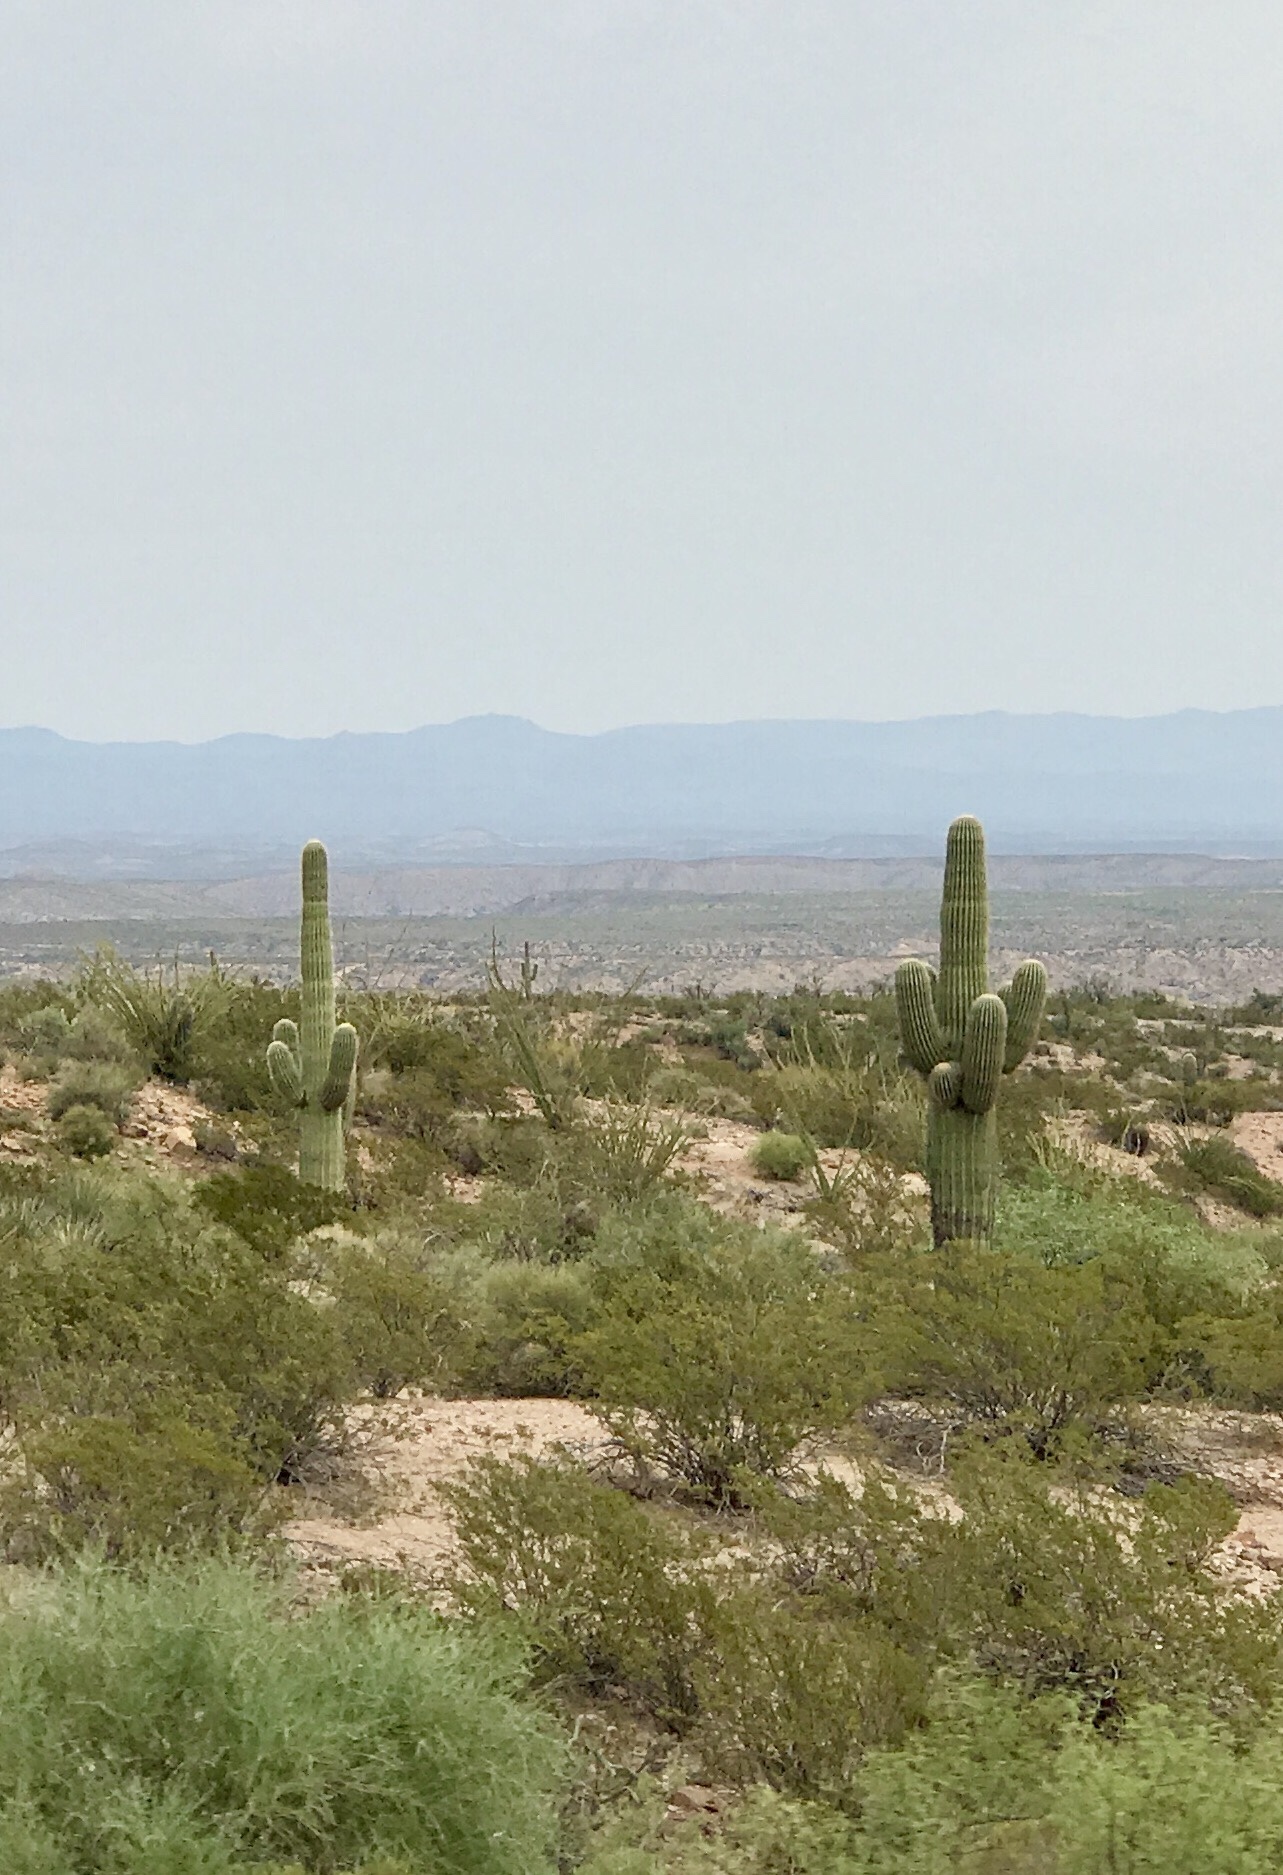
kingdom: Plantae
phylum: Tracheophyta
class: Magnoliopsida
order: Caryophyllales
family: Cactaceae
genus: Carnegiea
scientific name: Carnegiea gigantea
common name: Saguaro
